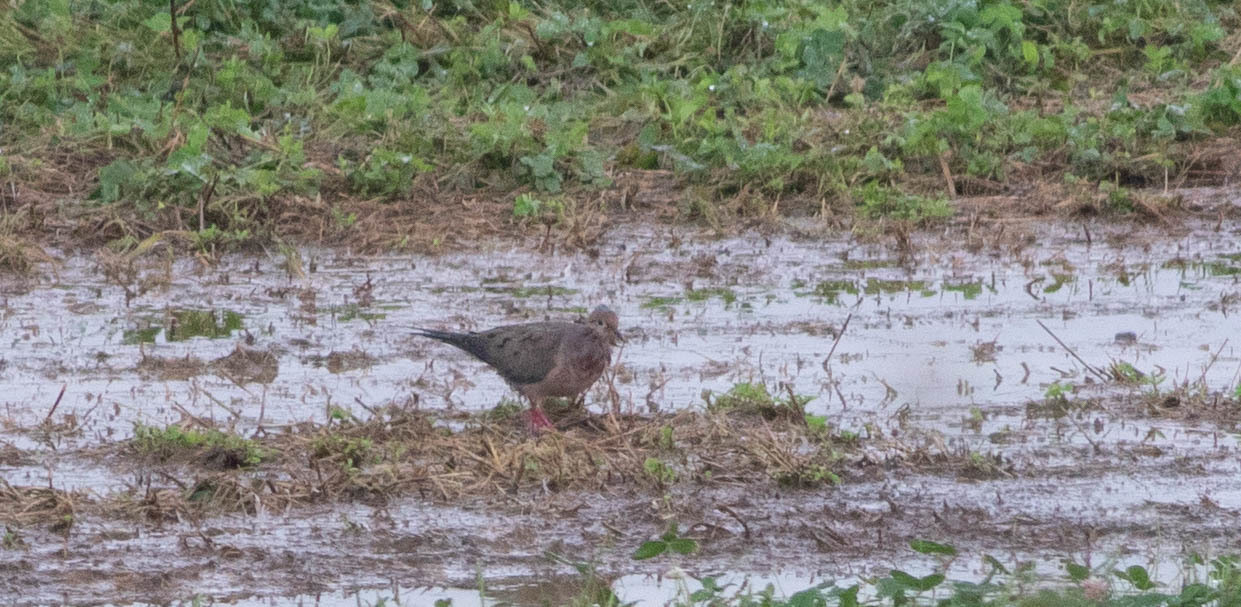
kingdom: Animalia
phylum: Chordata
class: Aves
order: Columbiformes
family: Columbidae
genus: Zenaida
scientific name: Zenaida macroura
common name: Mourning dove
